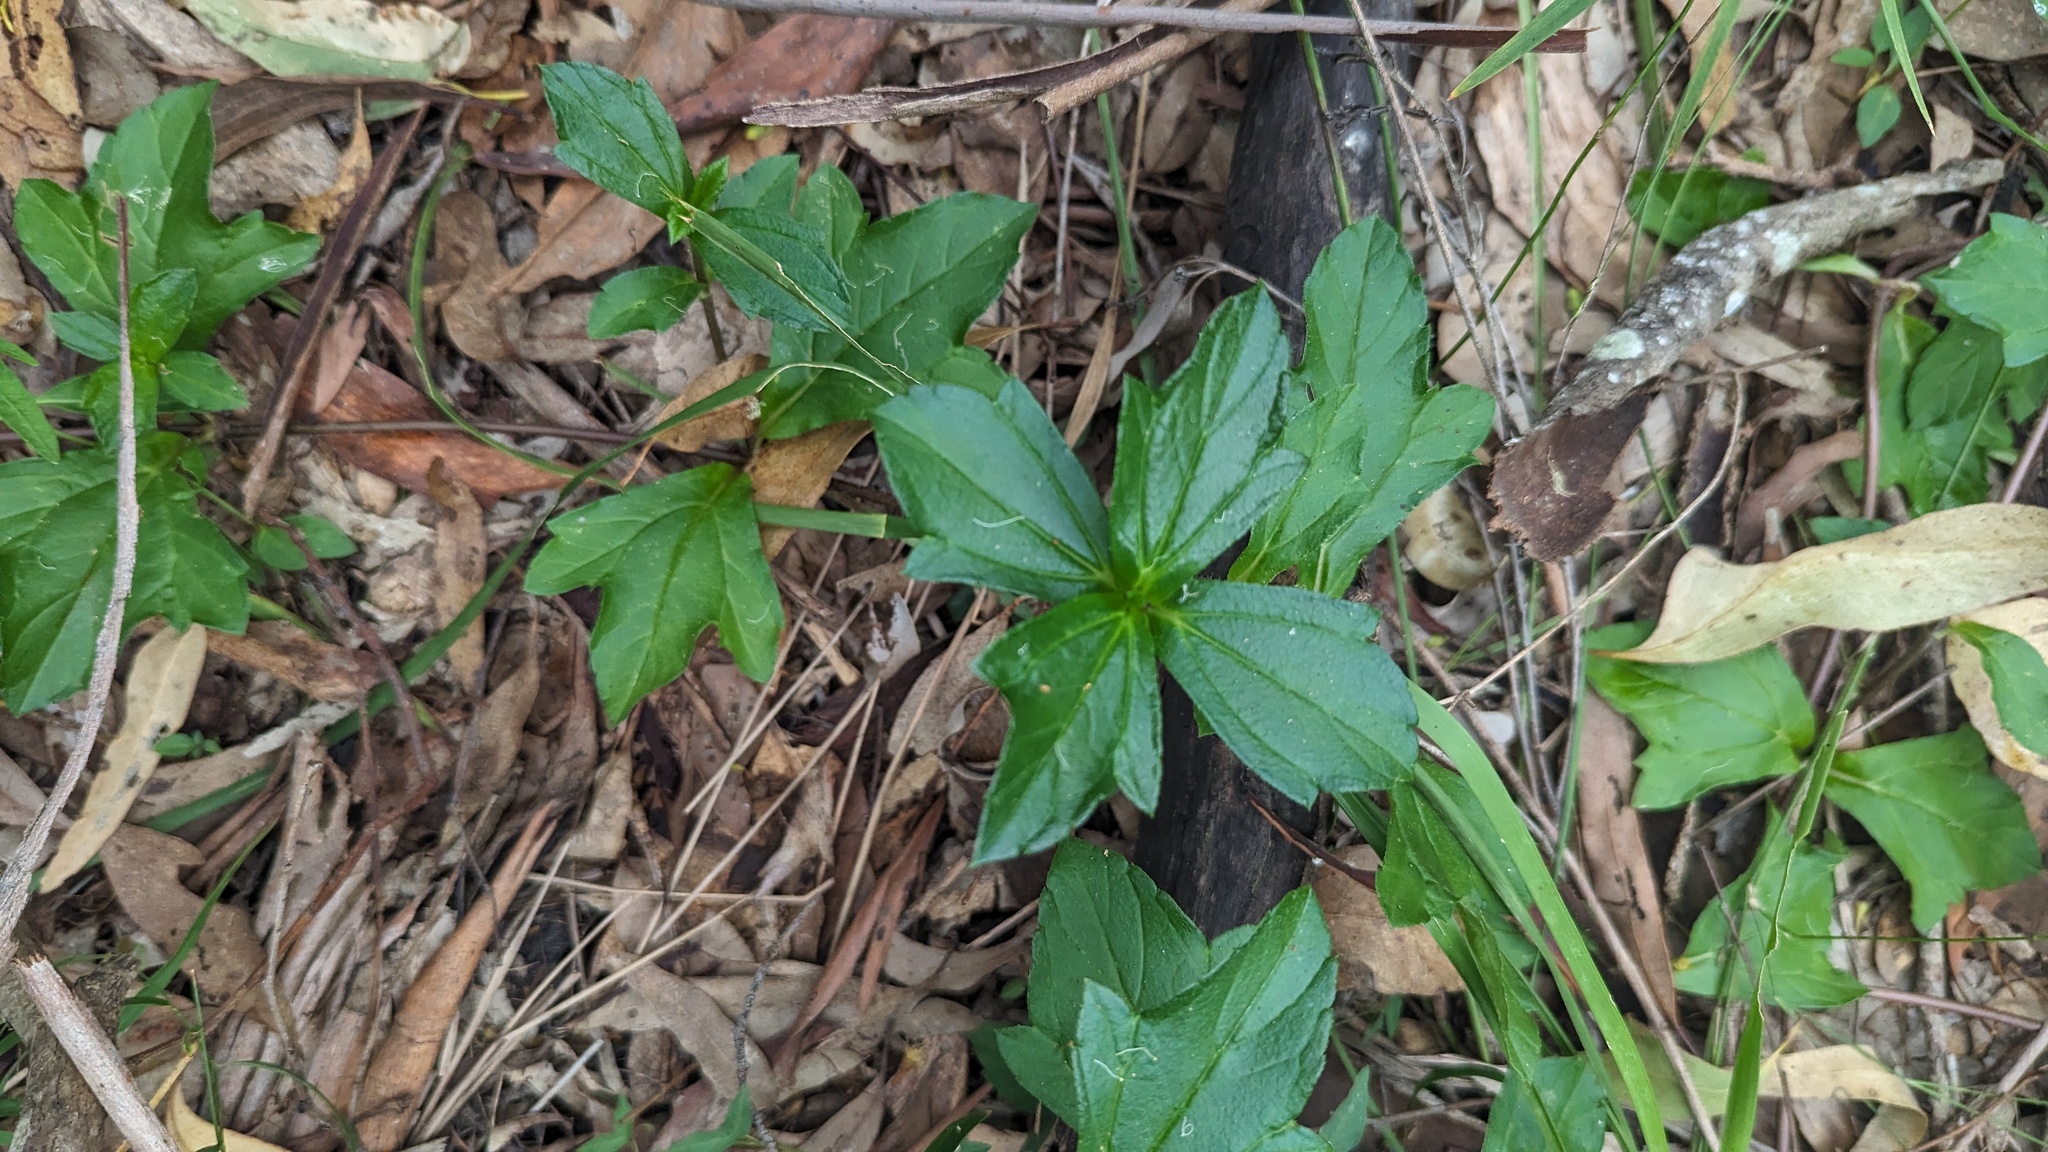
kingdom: Plantae
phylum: Tracheophyta
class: Magnoliopsida
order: Asterales
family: Asteraceae
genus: Sphagneticola
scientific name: Sphagneticola trilobata
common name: Bay biscayne creeping-oxeye
